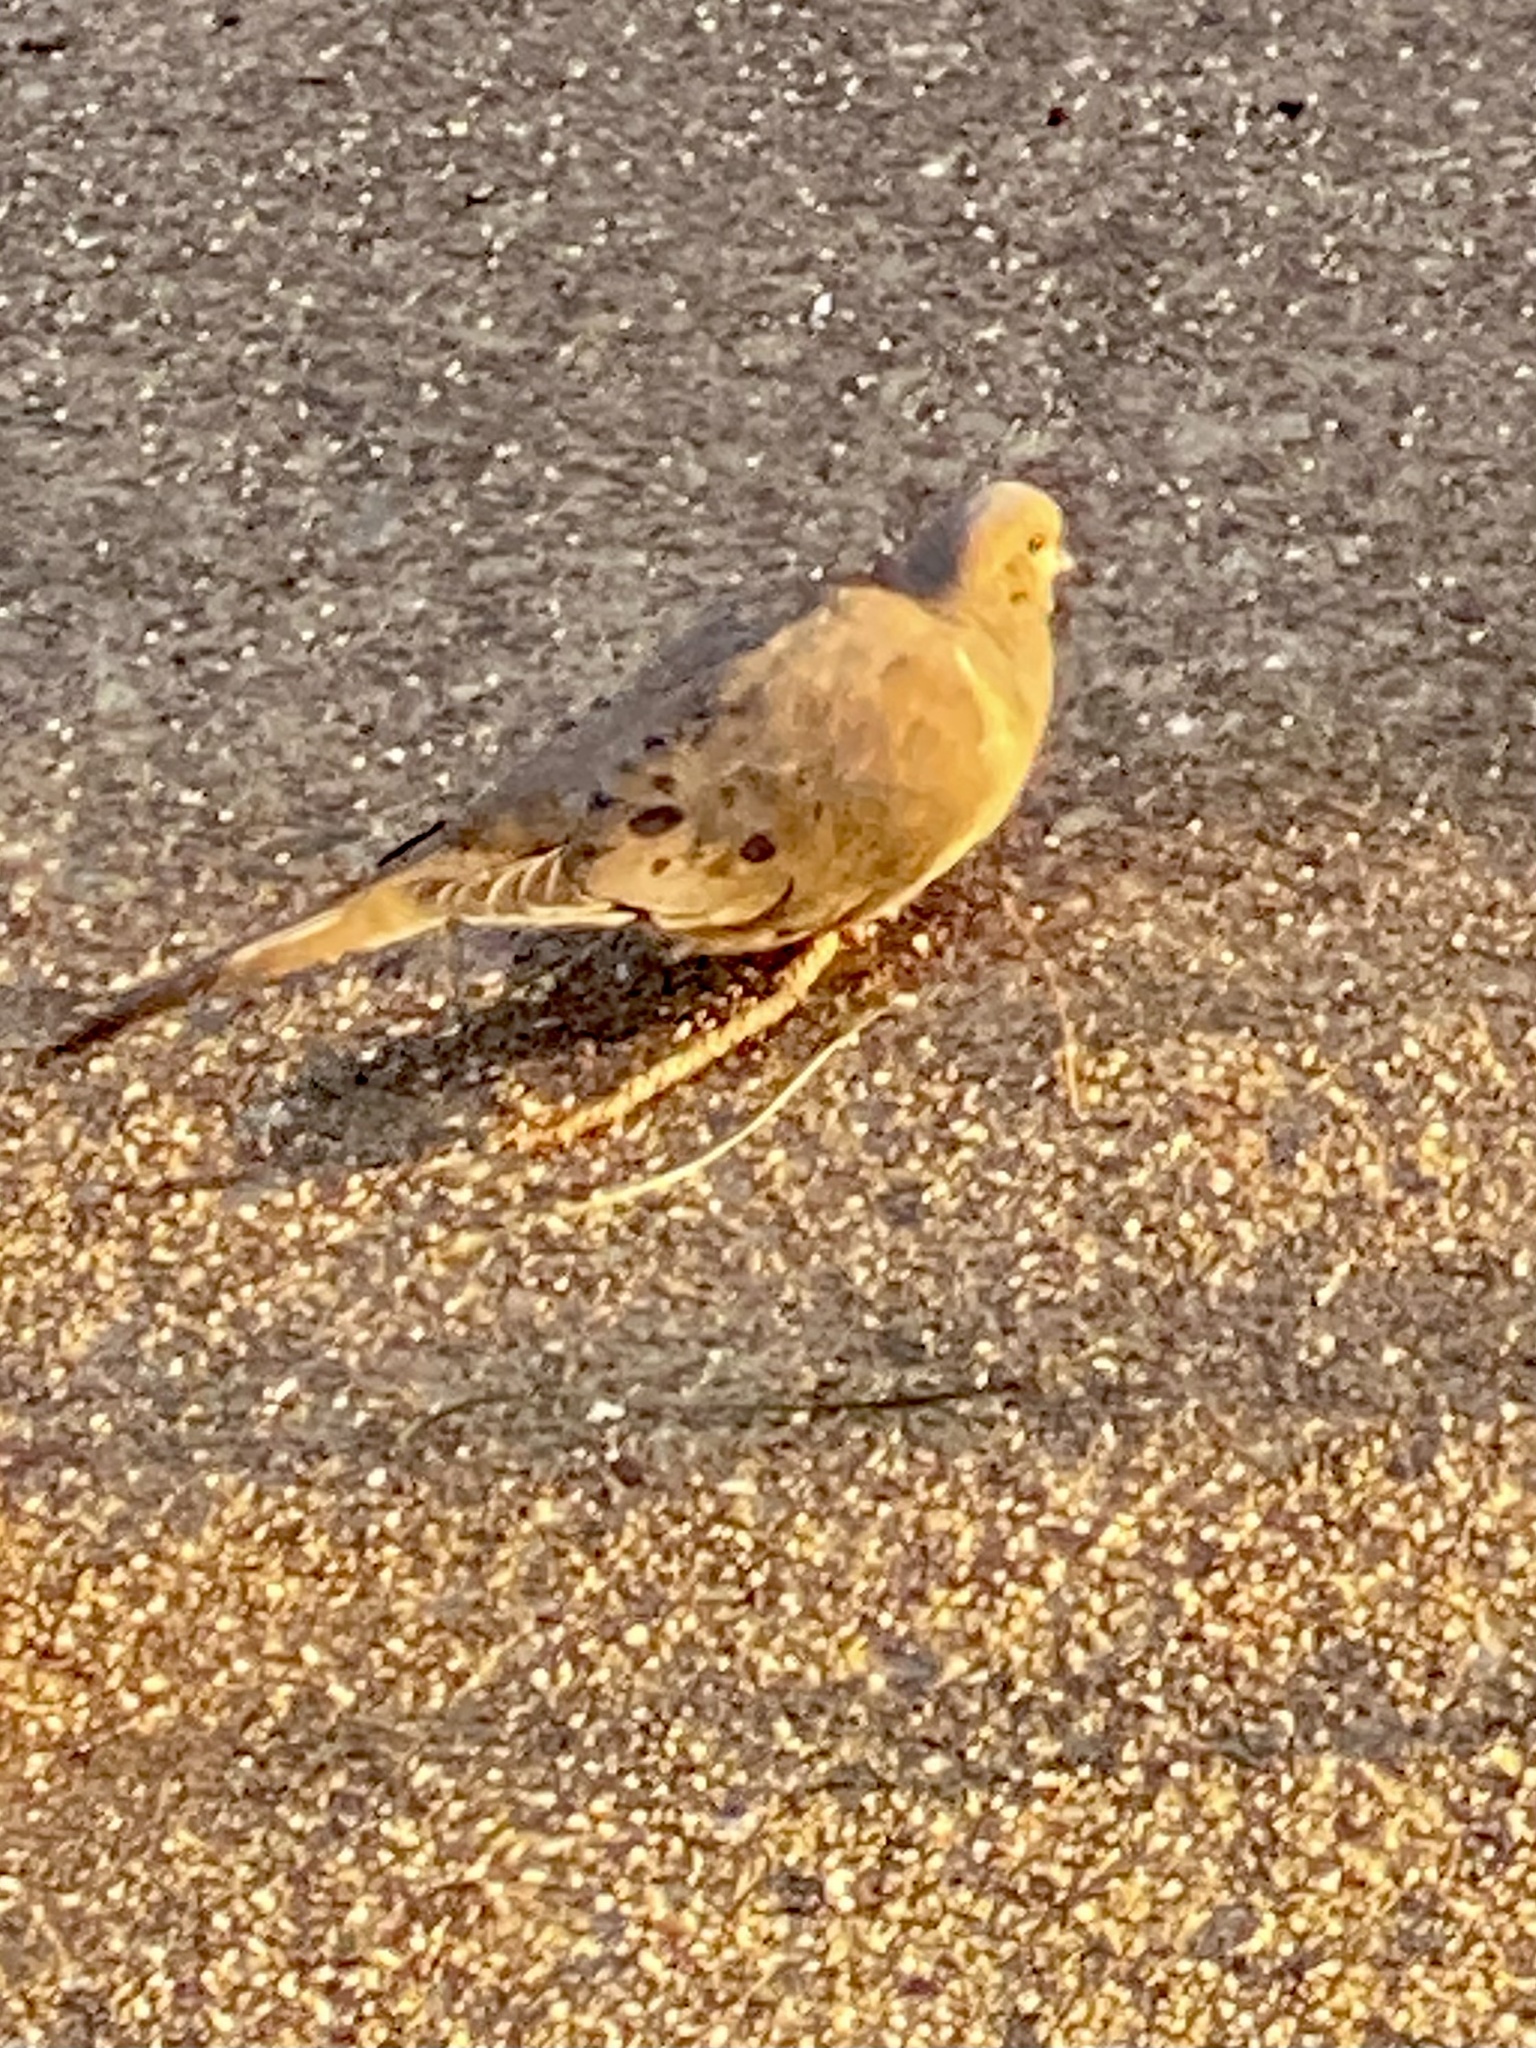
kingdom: Animalia
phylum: Chordata
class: Aves
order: Columbiformes
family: Columbidae
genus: Zenaida
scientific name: Zenaida macroura
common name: Mourning dove
